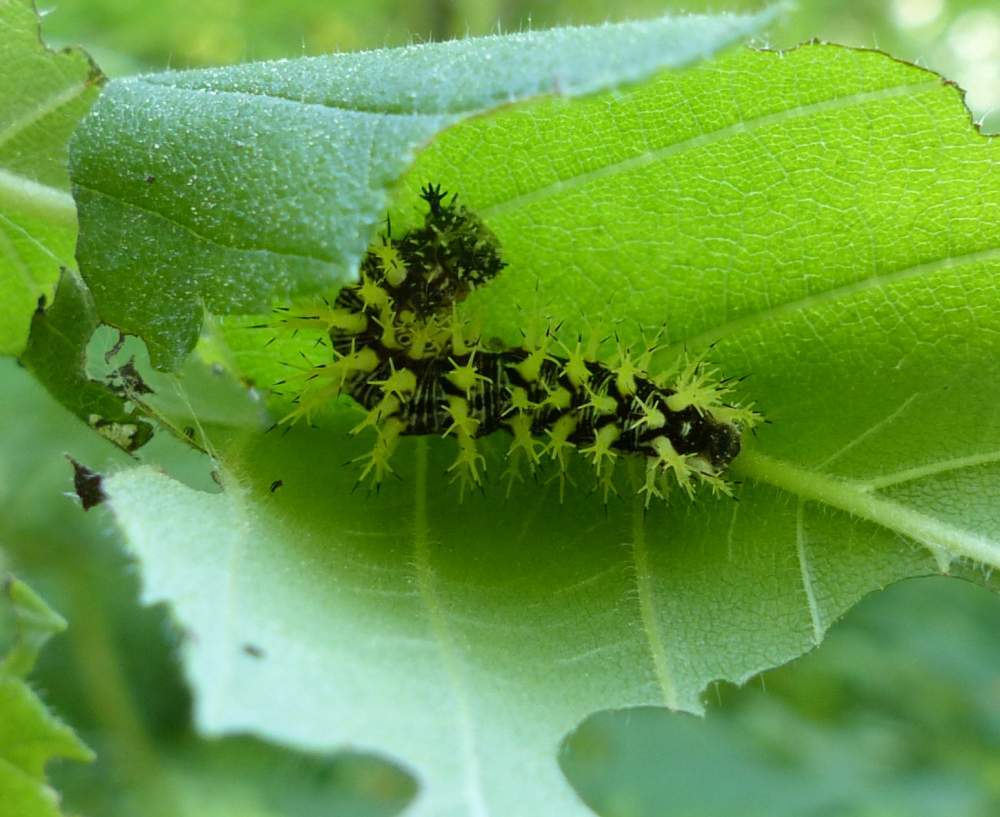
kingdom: Animalia
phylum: Arthropoda
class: Insecta
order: Lepidoptera
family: Nymphalidae
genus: Polygonia
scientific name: Polygonia comma
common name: Eastern comma
